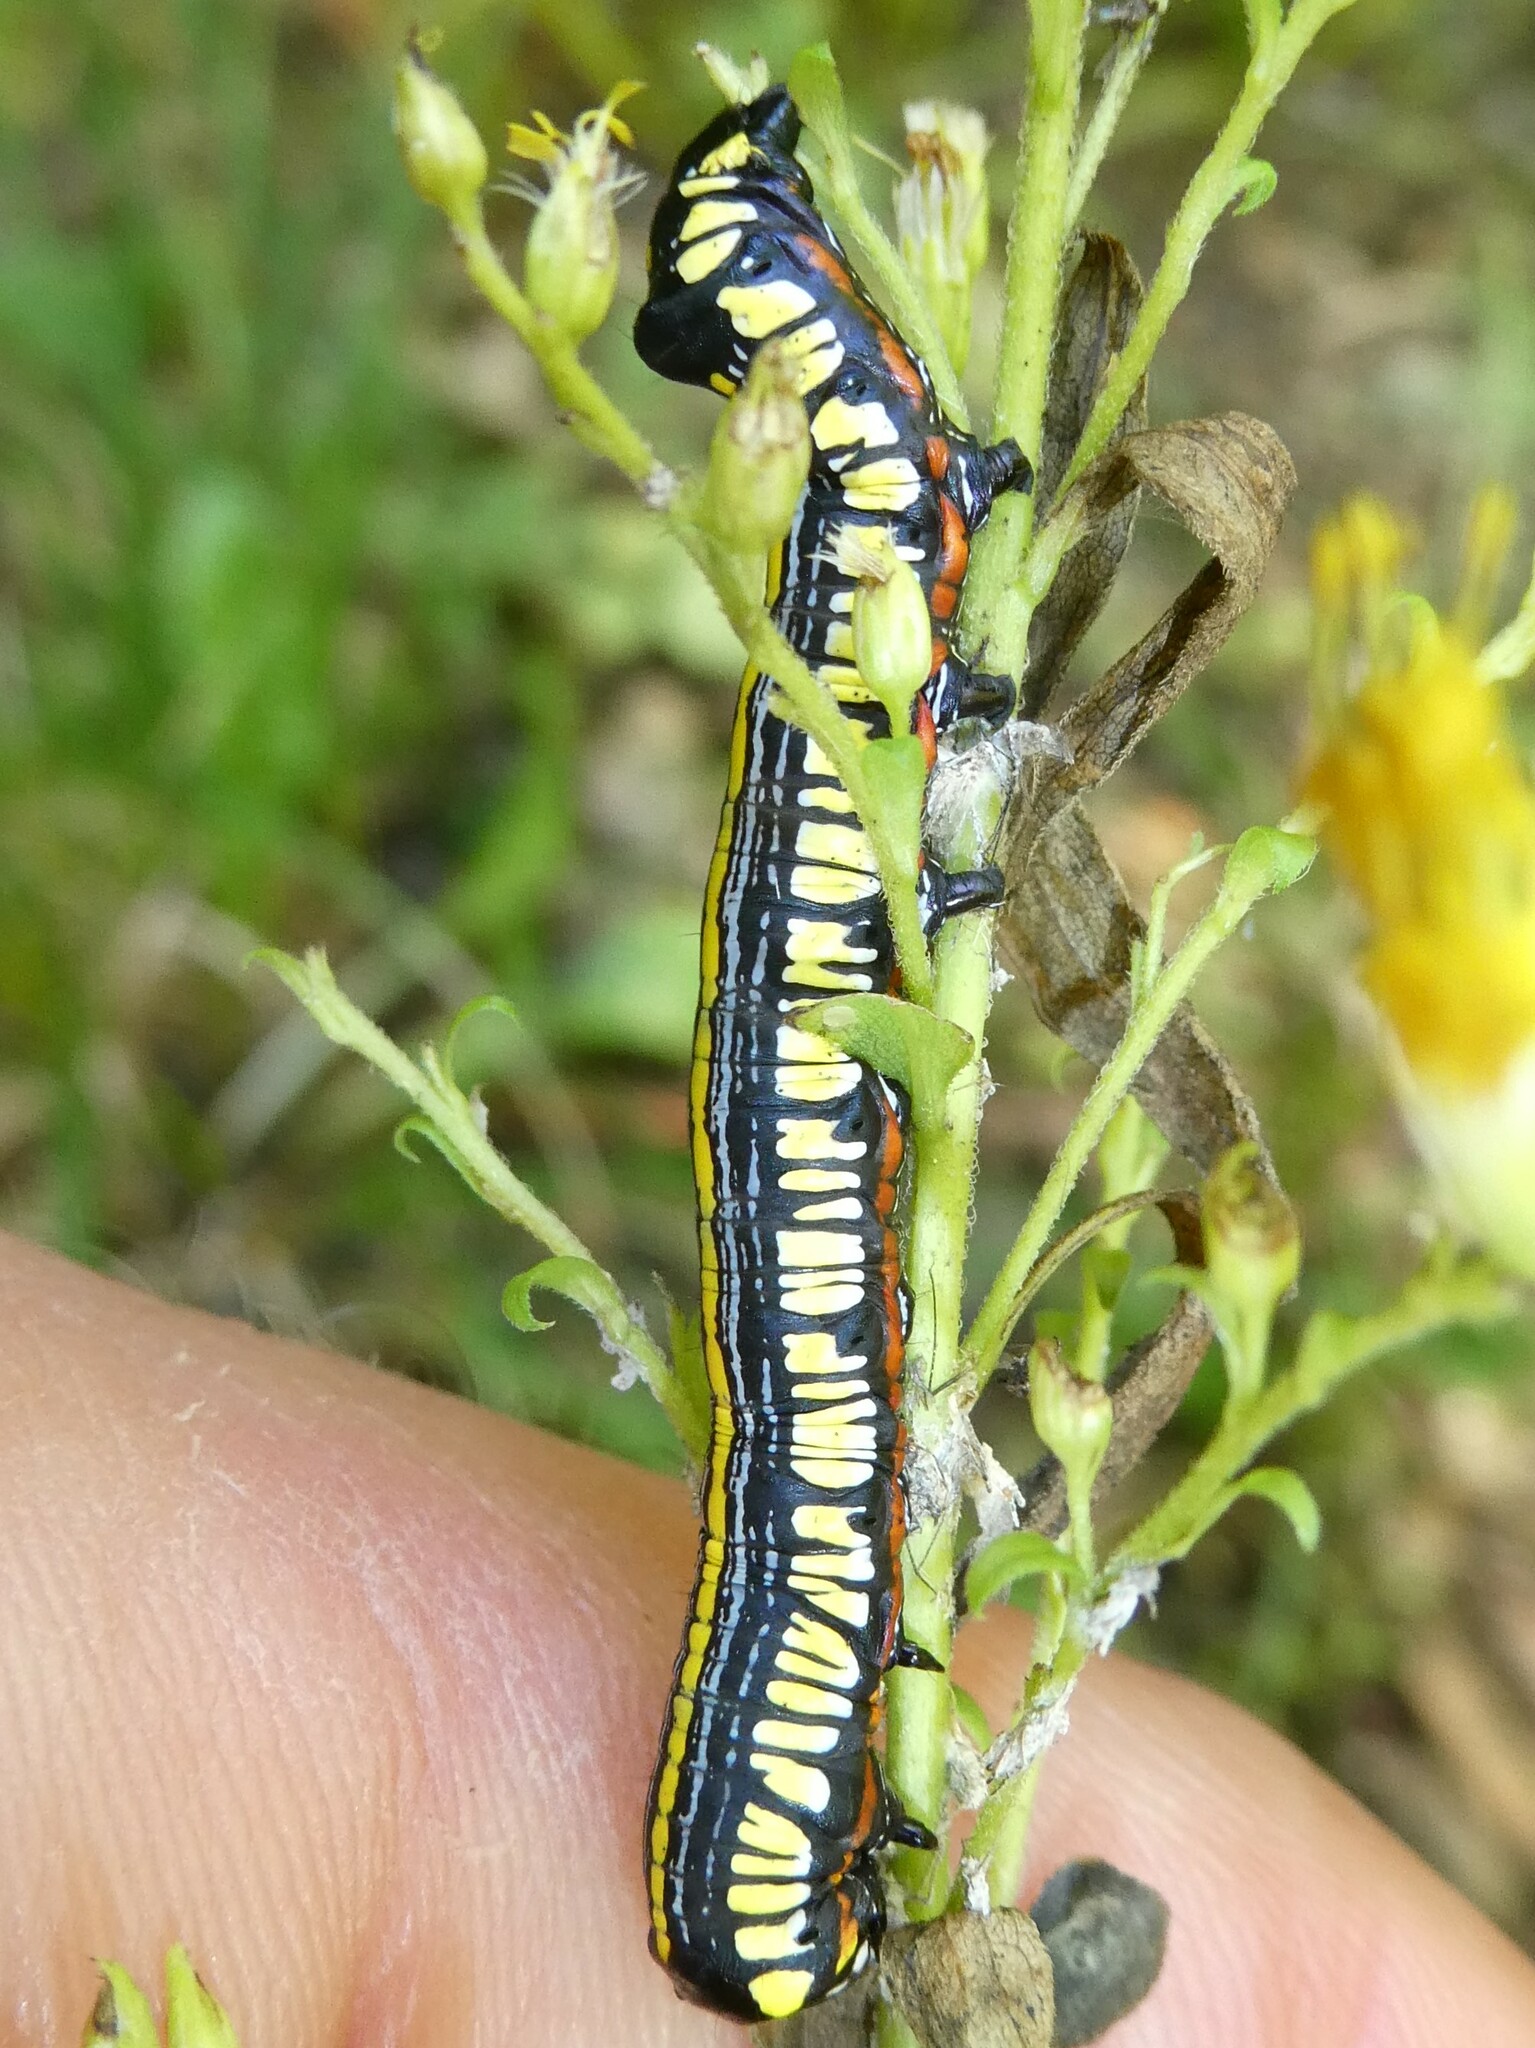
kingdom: Animalia
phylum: Arthropoda
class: Insecta
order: Lepidoptera
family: Noctuidae
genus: Cucullia
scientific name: Cucullia convexipennis
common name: Brown-hooded owlet
